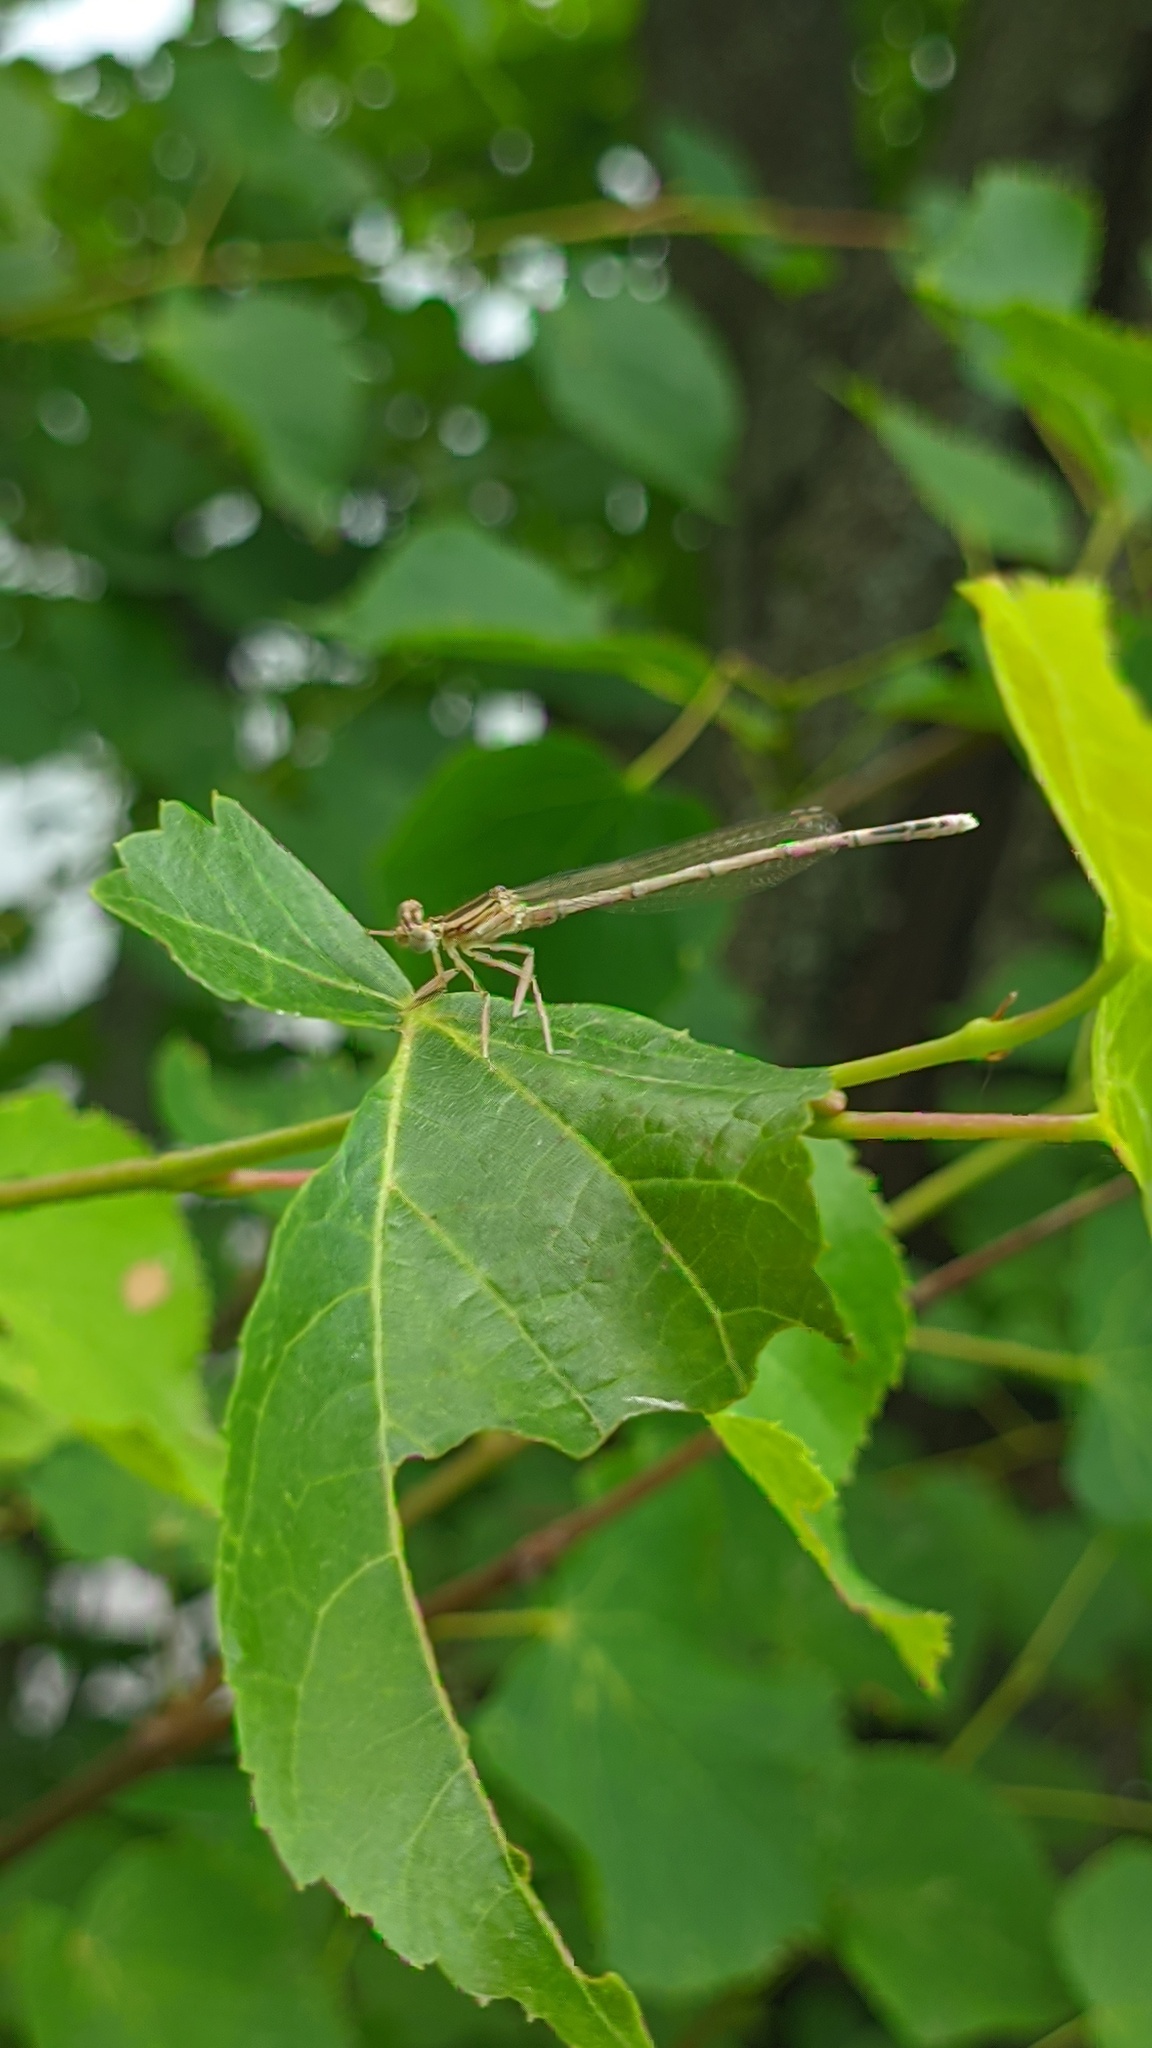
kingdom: Animalia
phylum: Arthropoda
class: Insecta
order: Odonata
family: Platycnemididae
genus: Platycnemis
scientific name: Platycnemis pennipes
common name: White-legged damselfly
